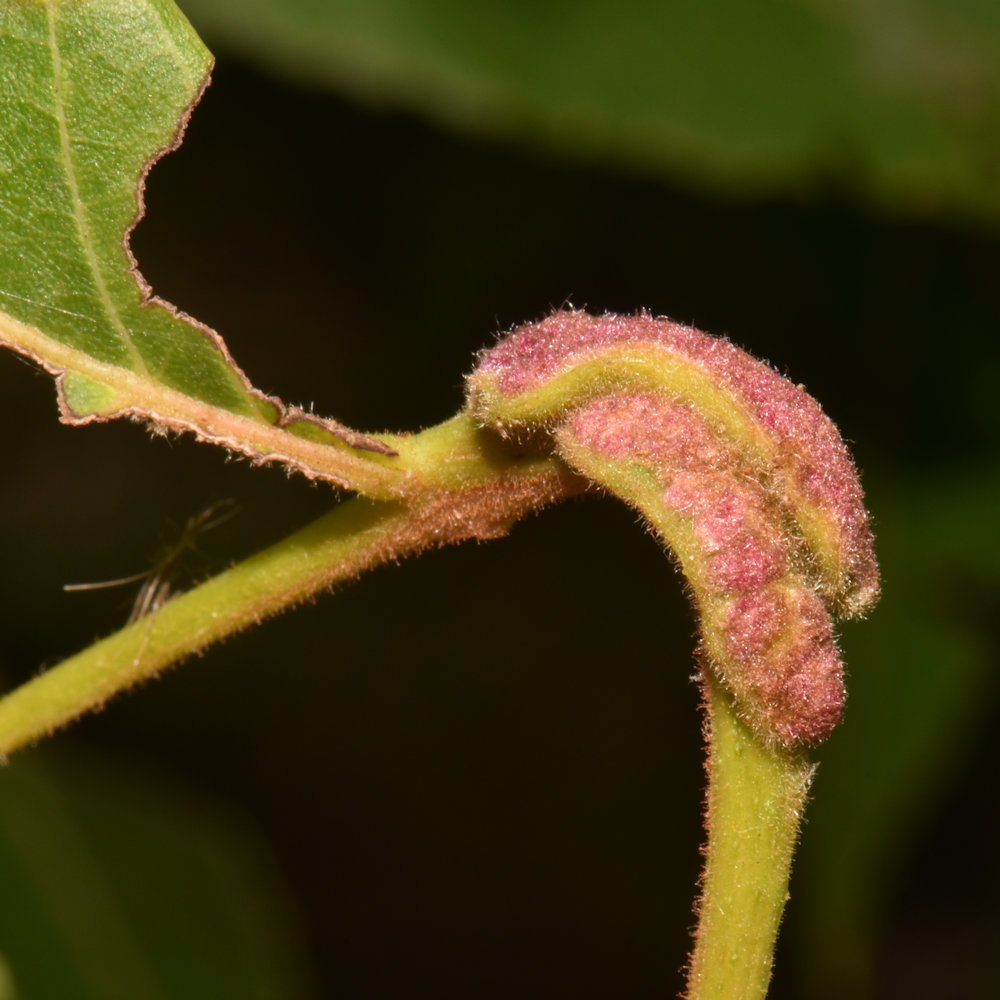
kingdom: Animalia
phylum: Arthropoda
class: Arachnida
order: Trombidiformes
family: Eriophyidae
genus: Aceria
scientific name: Aceria
